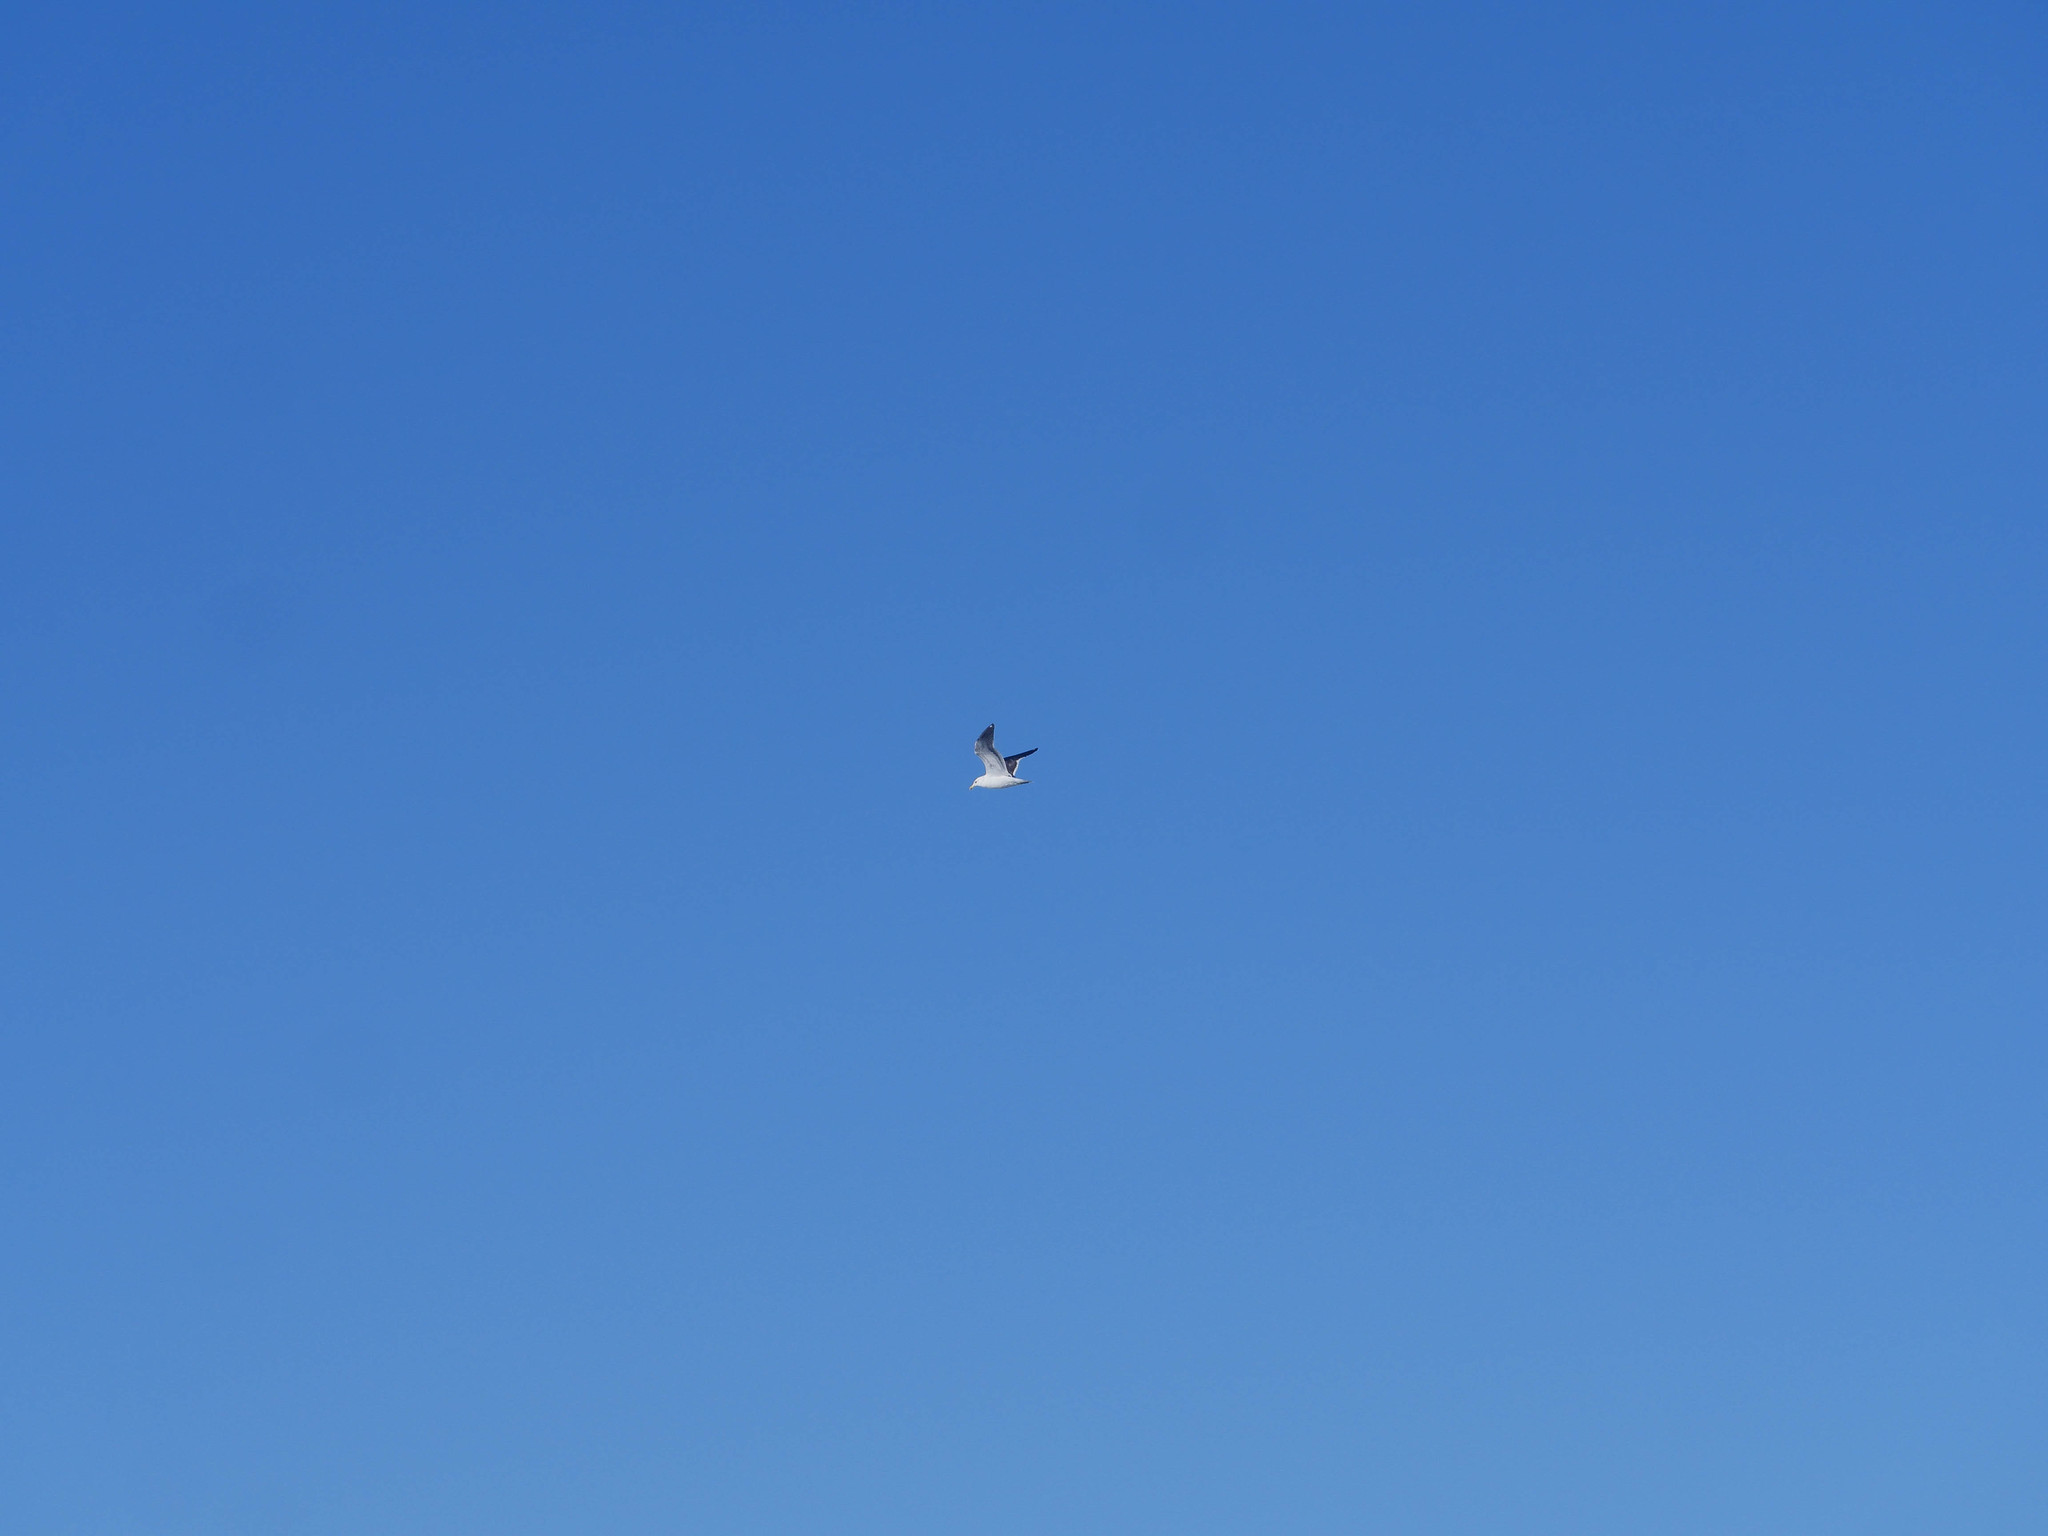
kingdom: Animalia
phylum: Chordata
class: Aves
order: Charadriiformes
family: Laridae
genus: Larus
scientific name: Larus dominicanus
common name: Kelp gull
